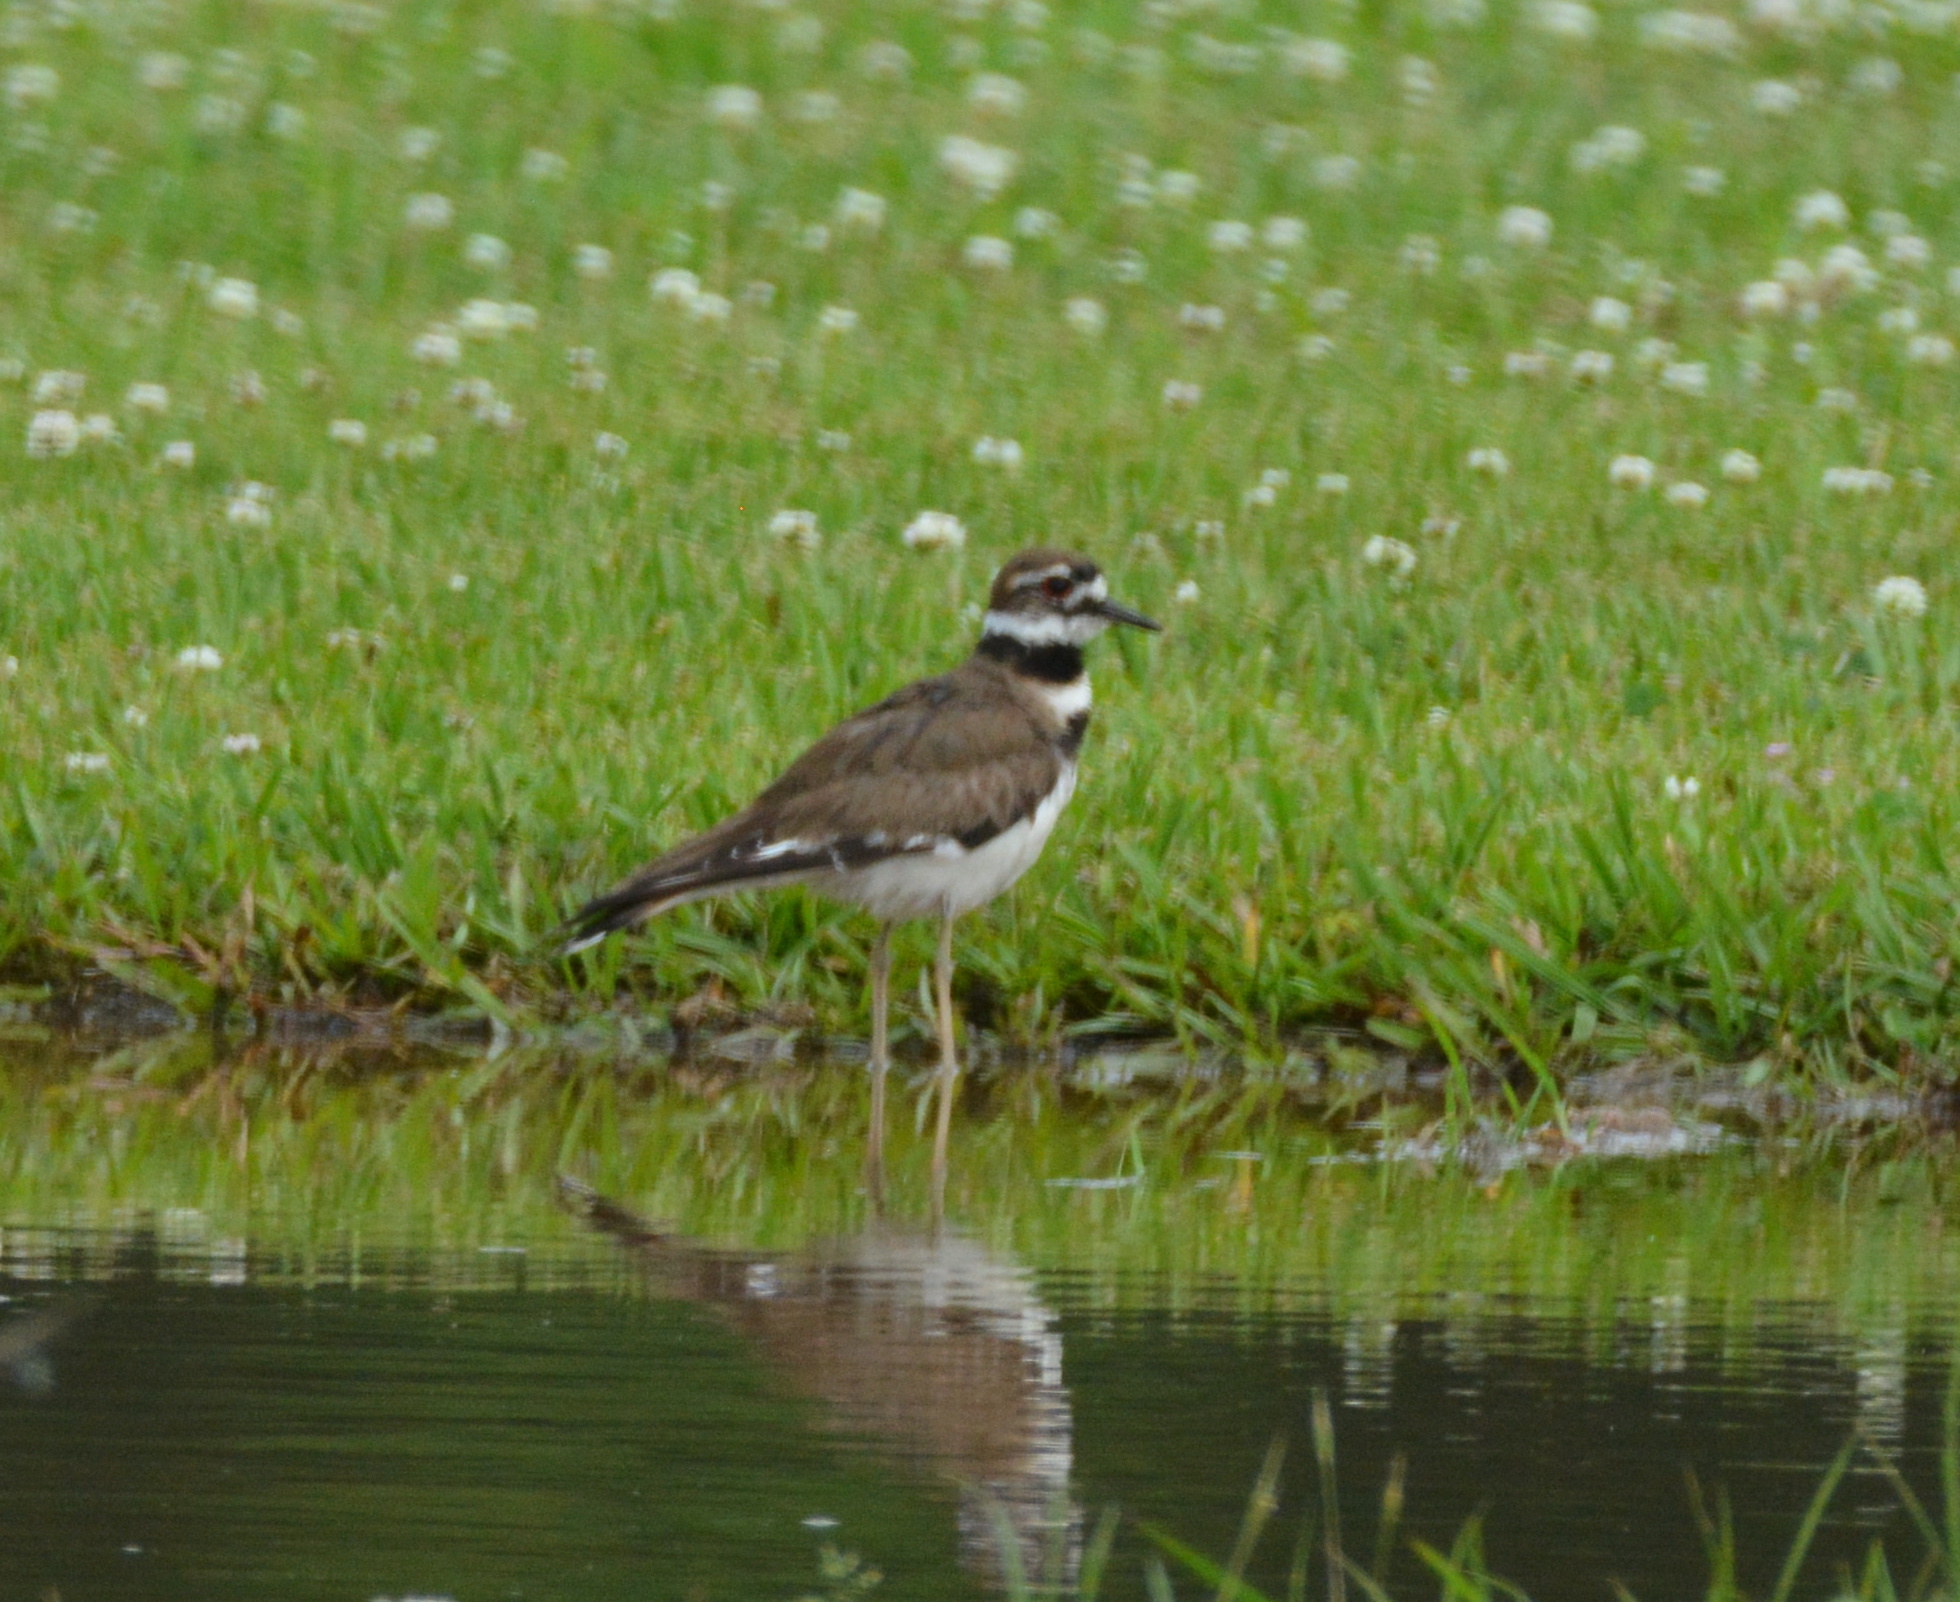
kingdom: Animalia
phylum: Chordata
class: Aves
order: Charadriiformes
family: Charadriidae
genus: Charadrius
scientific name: Charadrius vociferus
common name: Killdeer
